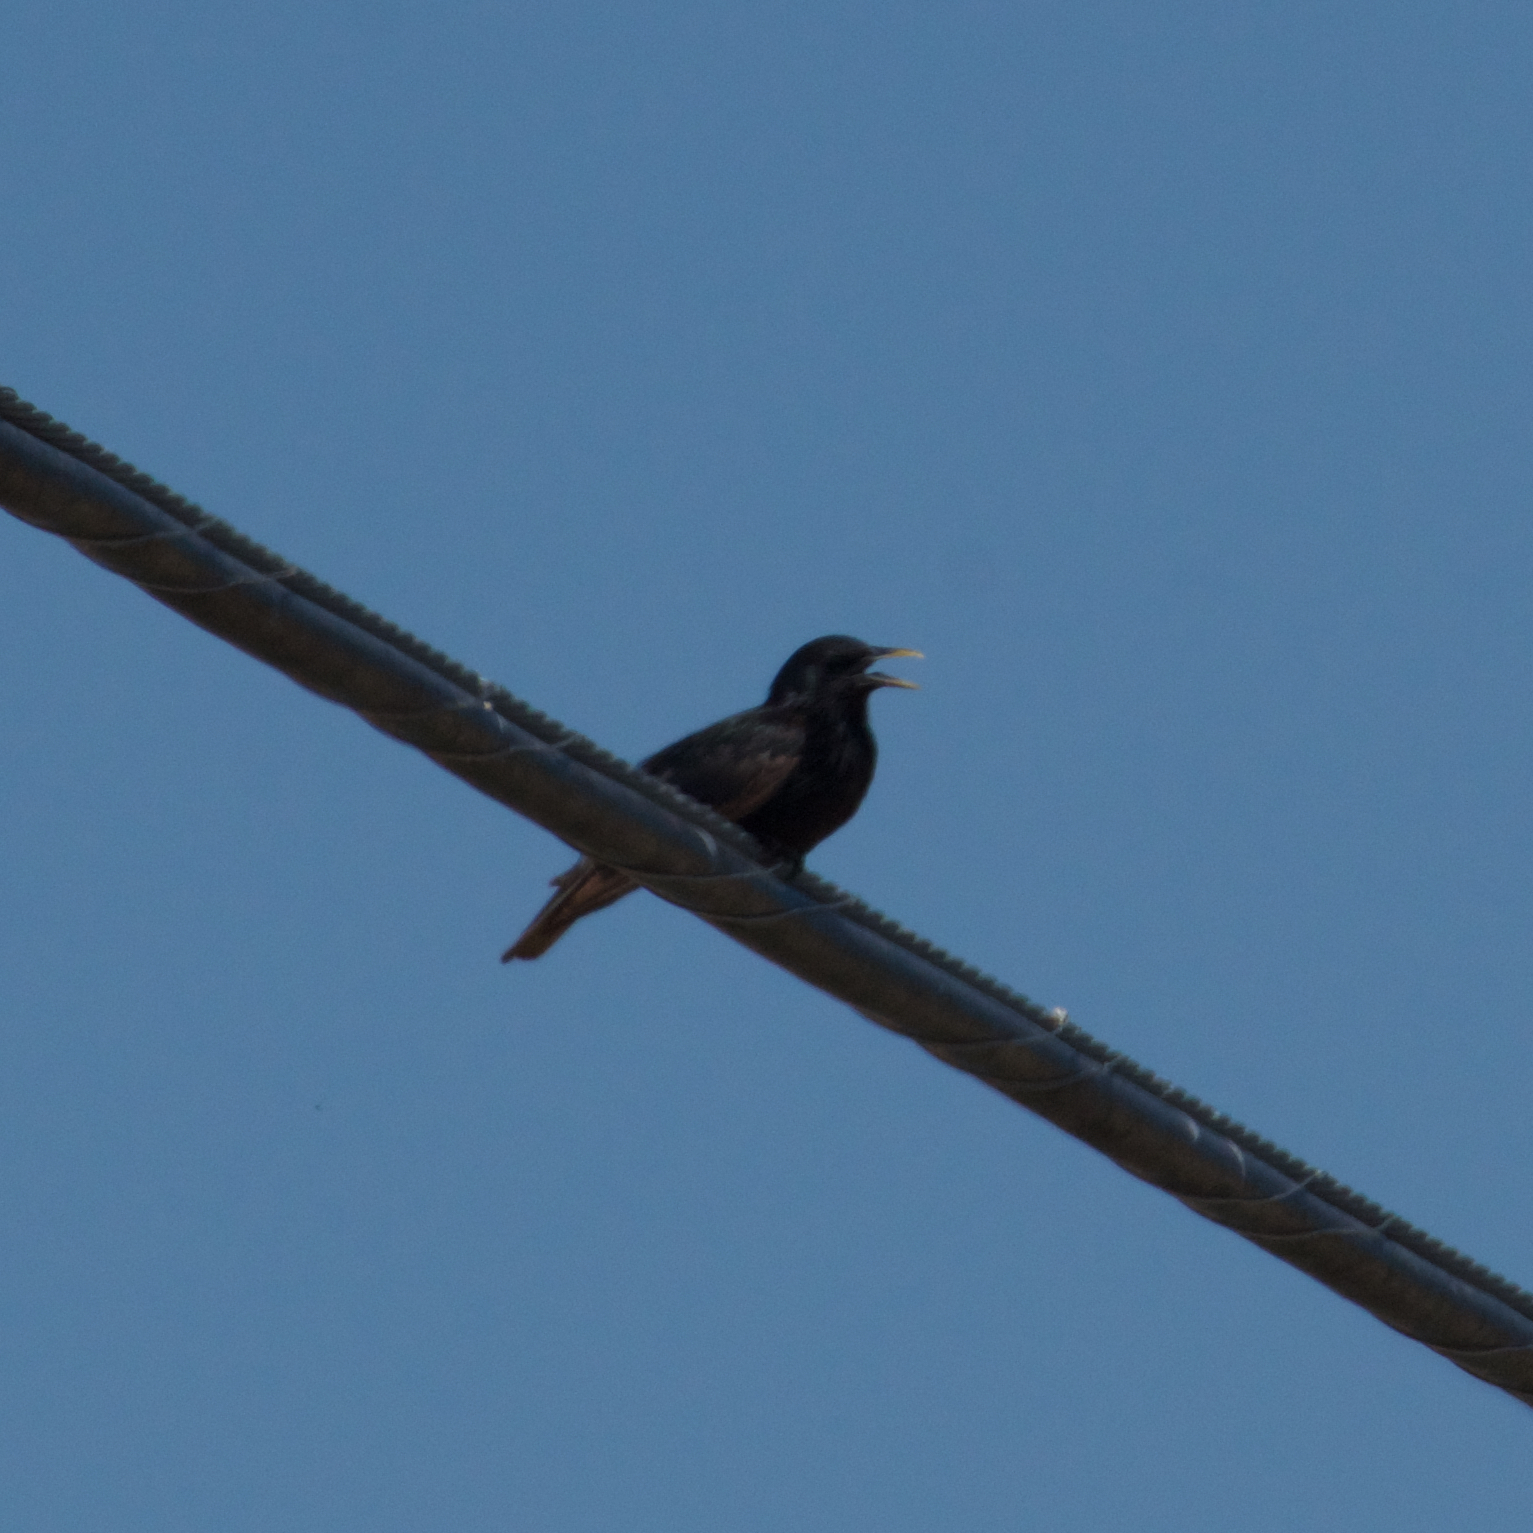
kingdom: Animalia
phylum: Chordata
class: Aves
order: Passeriformes
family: Sturnidae
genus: Sturnus
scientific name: Sturnus vulgaris
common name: Common starling
